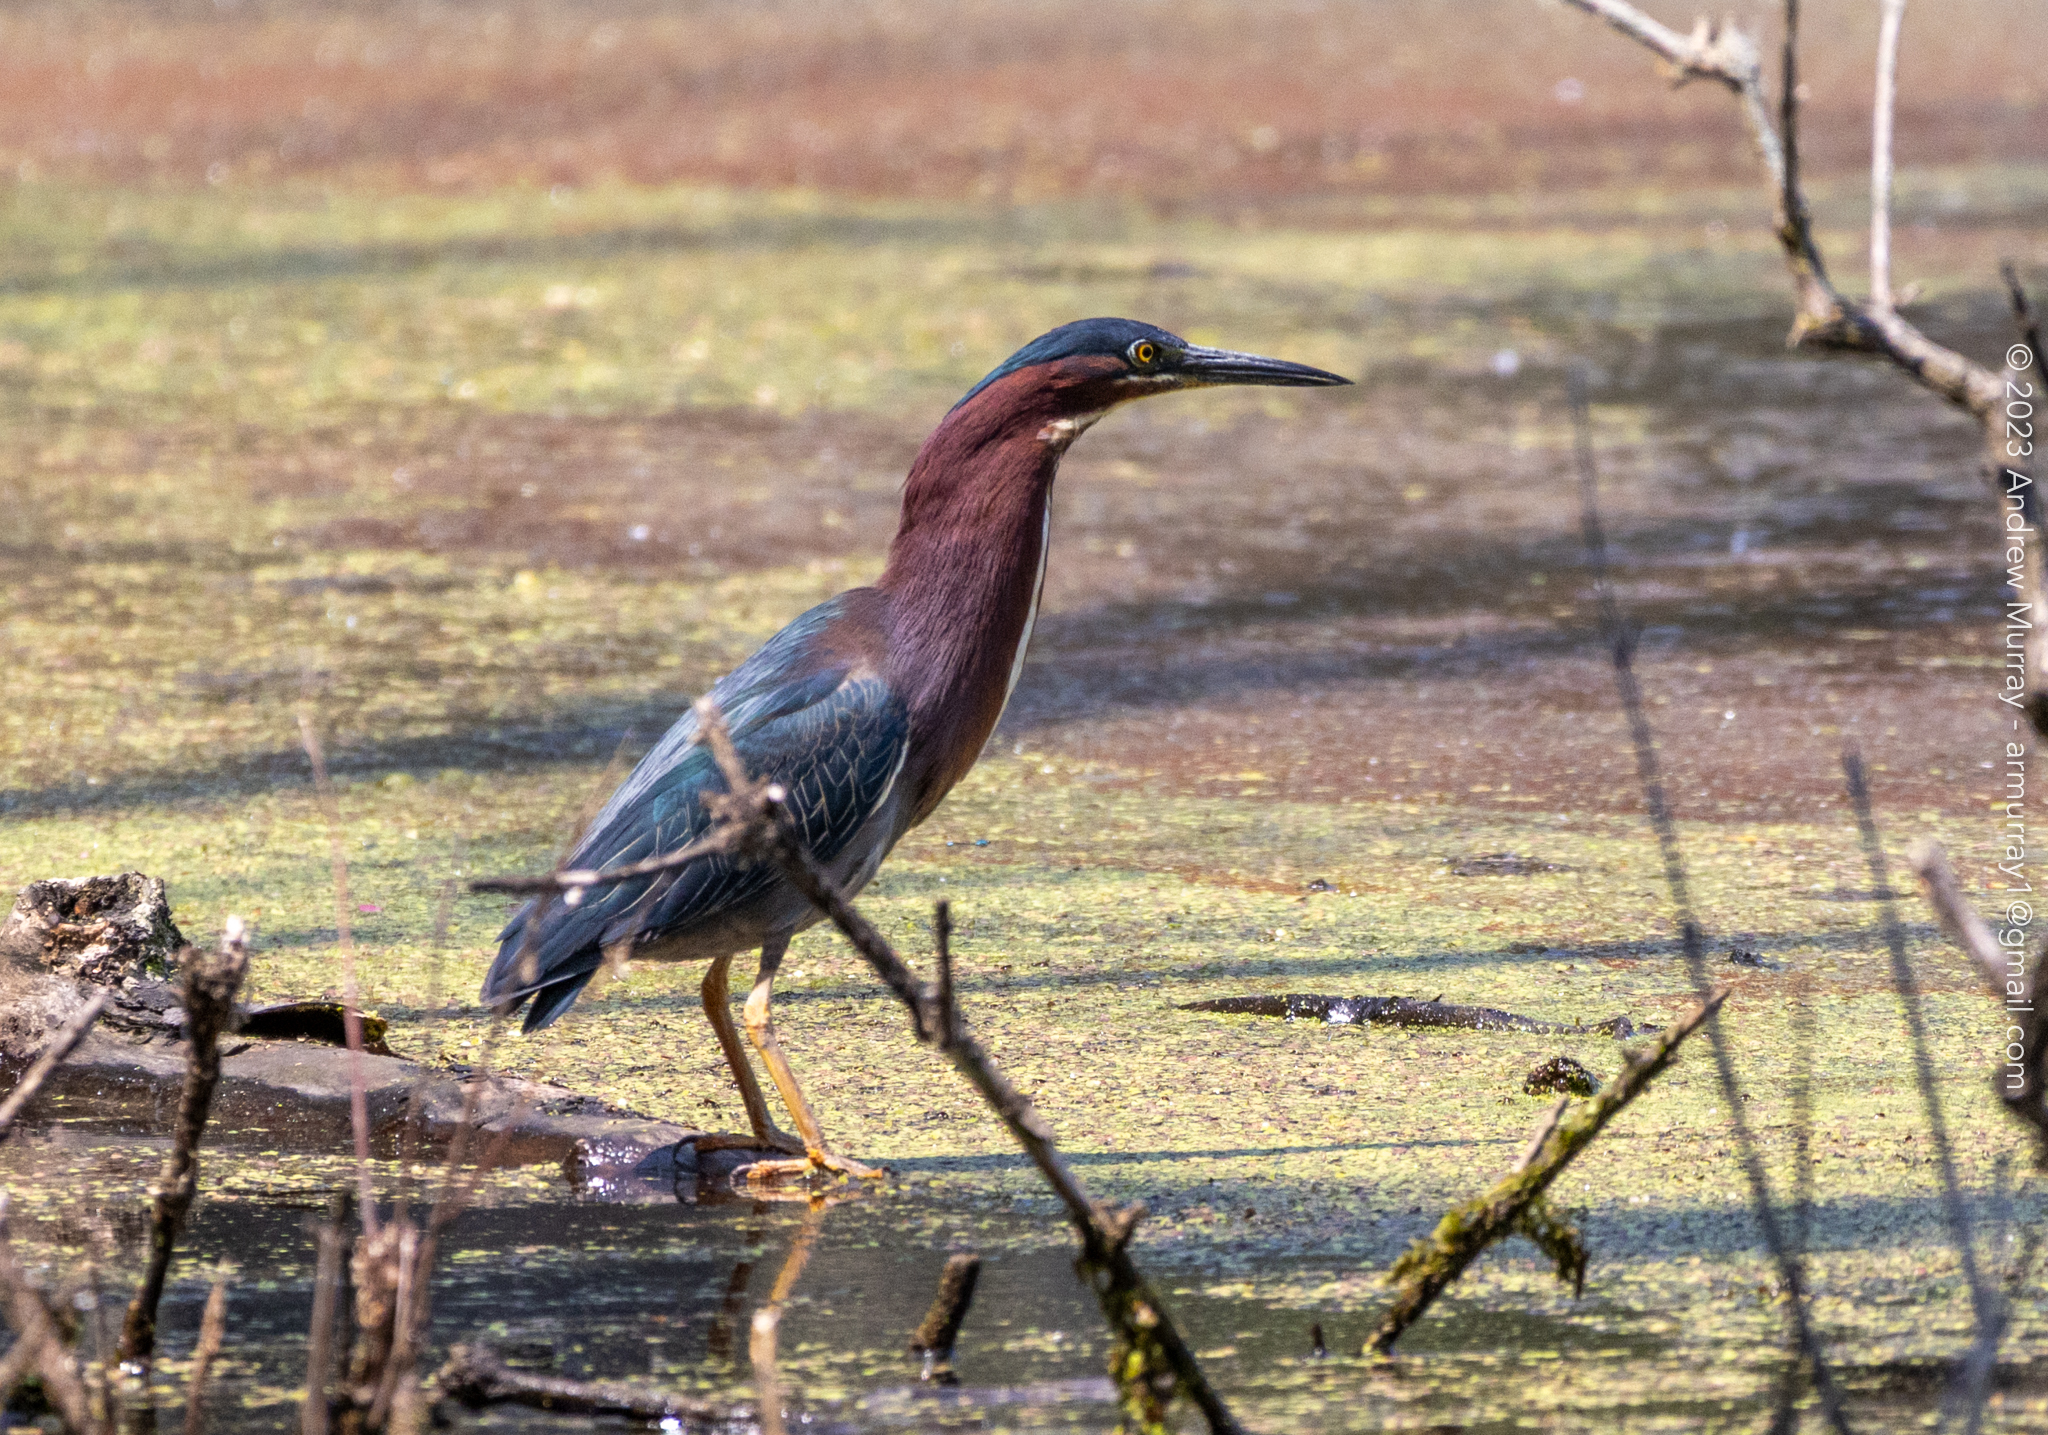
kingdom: Animalia
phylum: Chordata
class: Aves
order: Pelecaniformes
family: Ardeidae
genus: Butorides
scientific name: Butorides virescens
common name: Green heron
